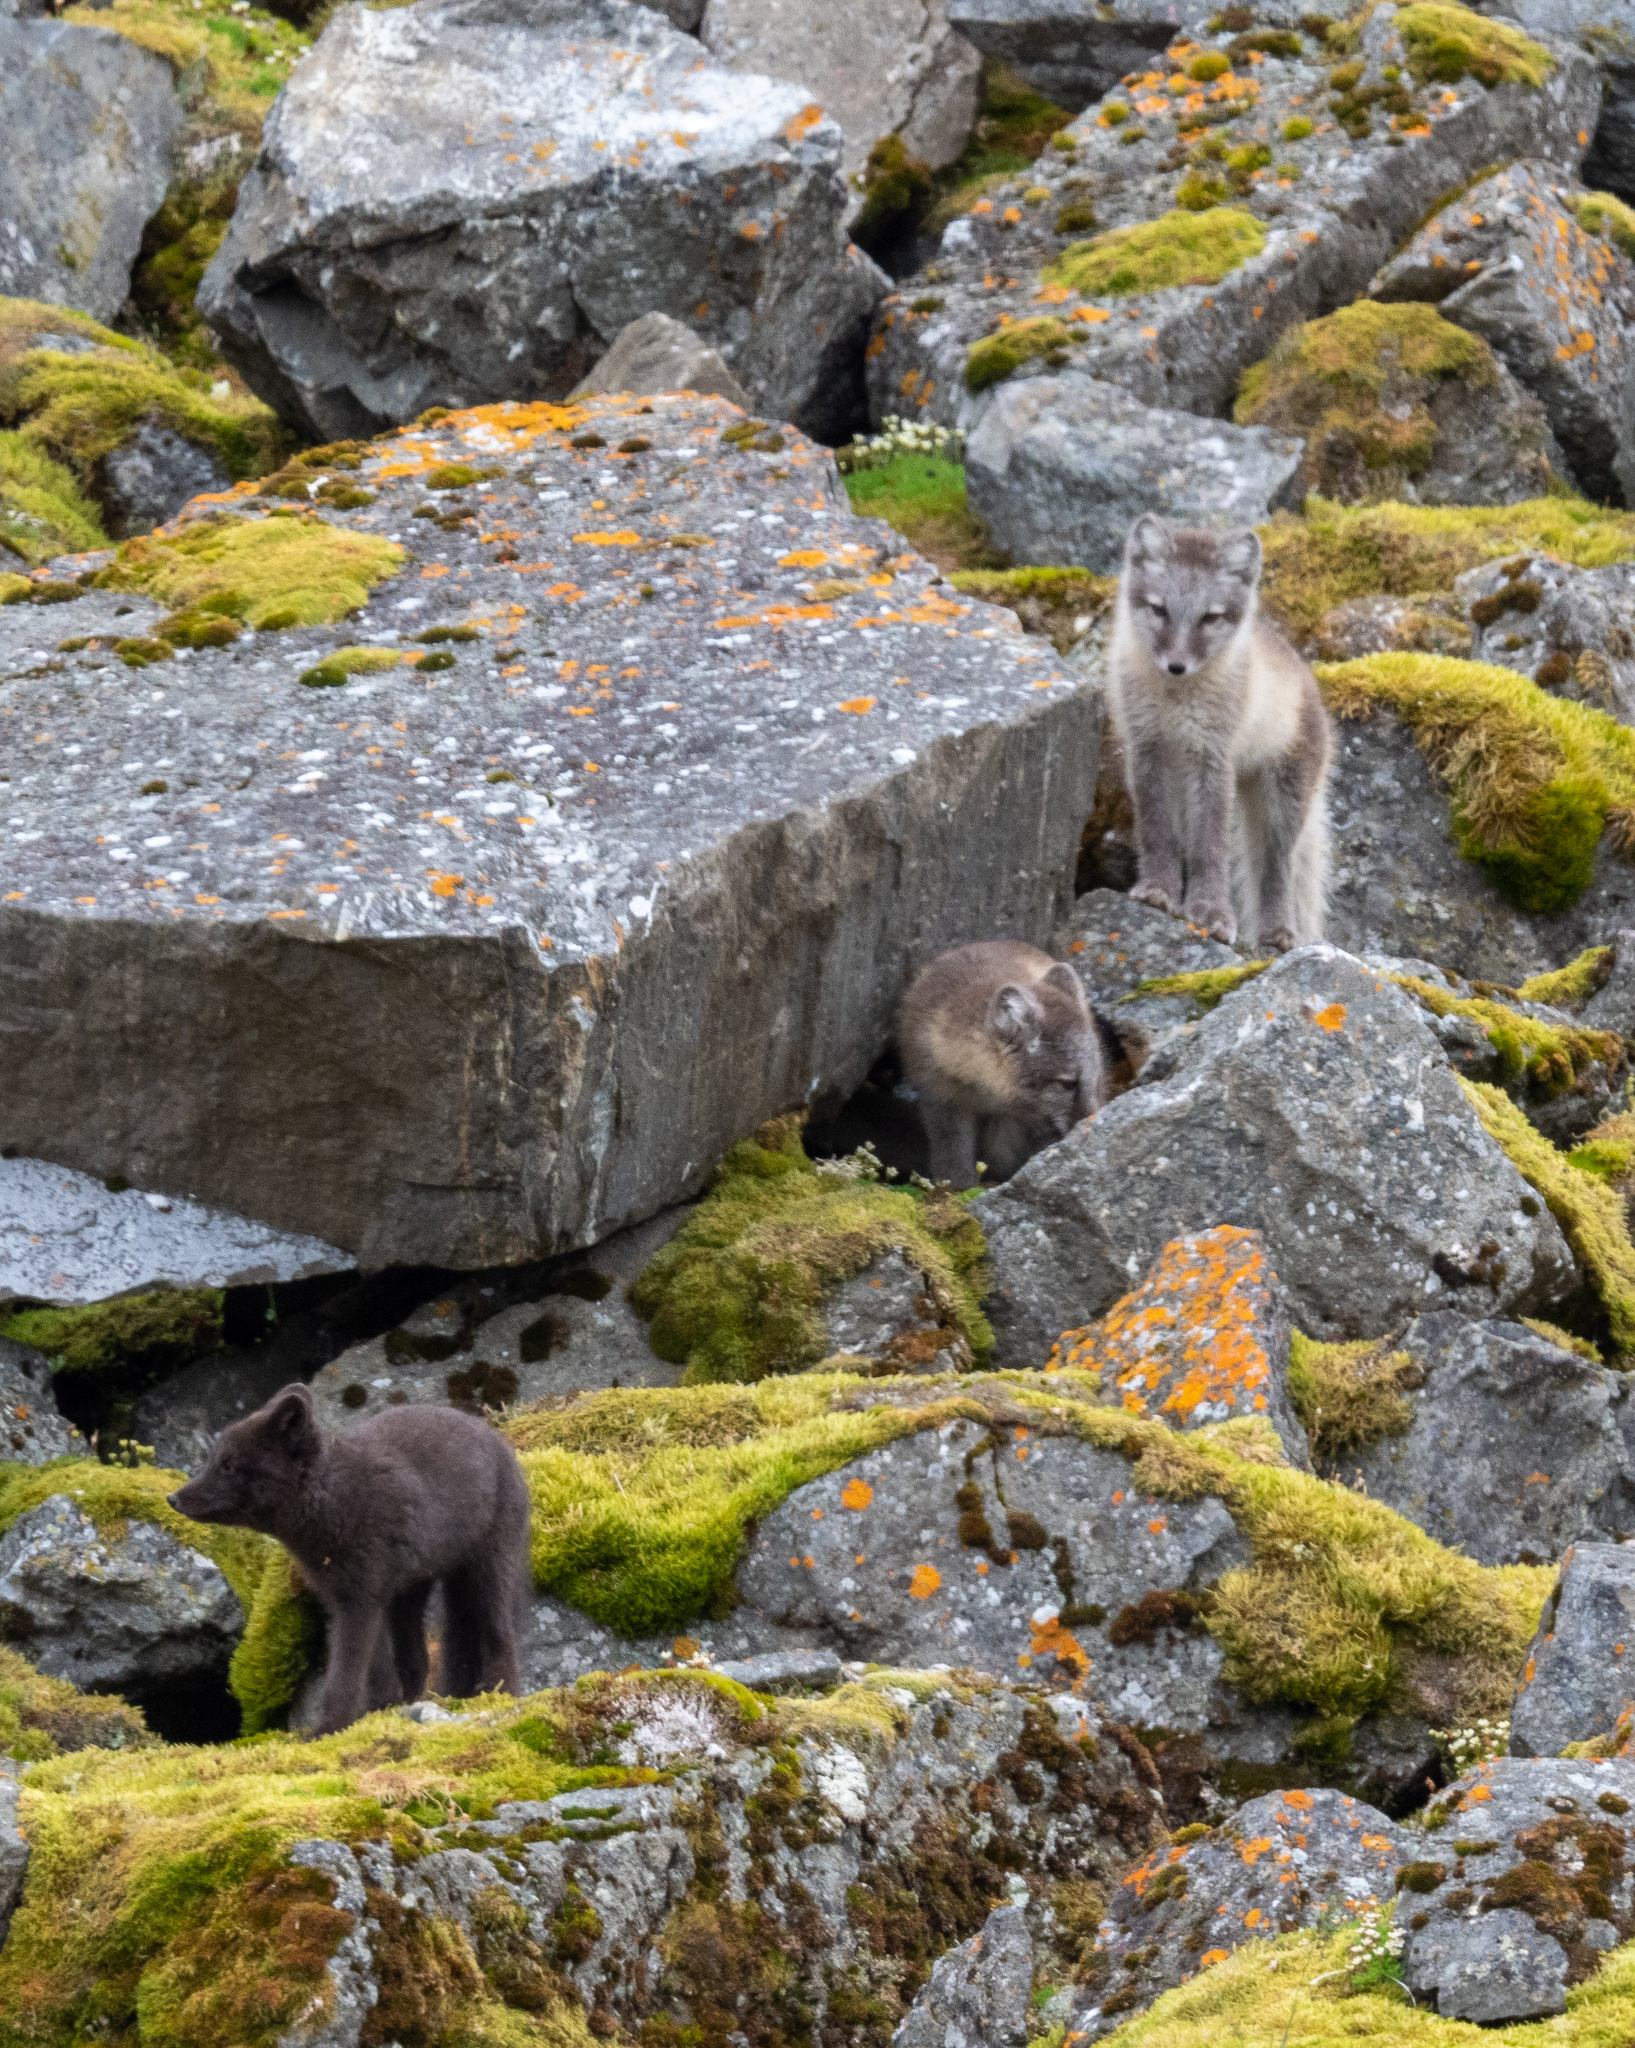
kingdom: Animalia
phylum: Chordata
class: Mammalia
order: Carnivora
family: Canidae
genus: Vulpes
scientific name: Vulpes lagopus
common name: Arctic fox
